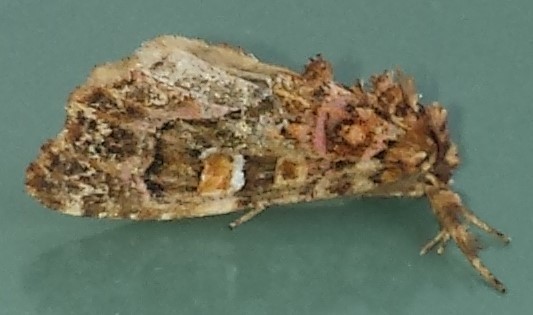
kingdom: Animalia
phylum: Arthropoda
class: Insecta
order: Lepidoptera
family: Noctuidae
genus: Callopistria
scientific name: Callopistria mollissima
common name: Pink-shaded fern moth
